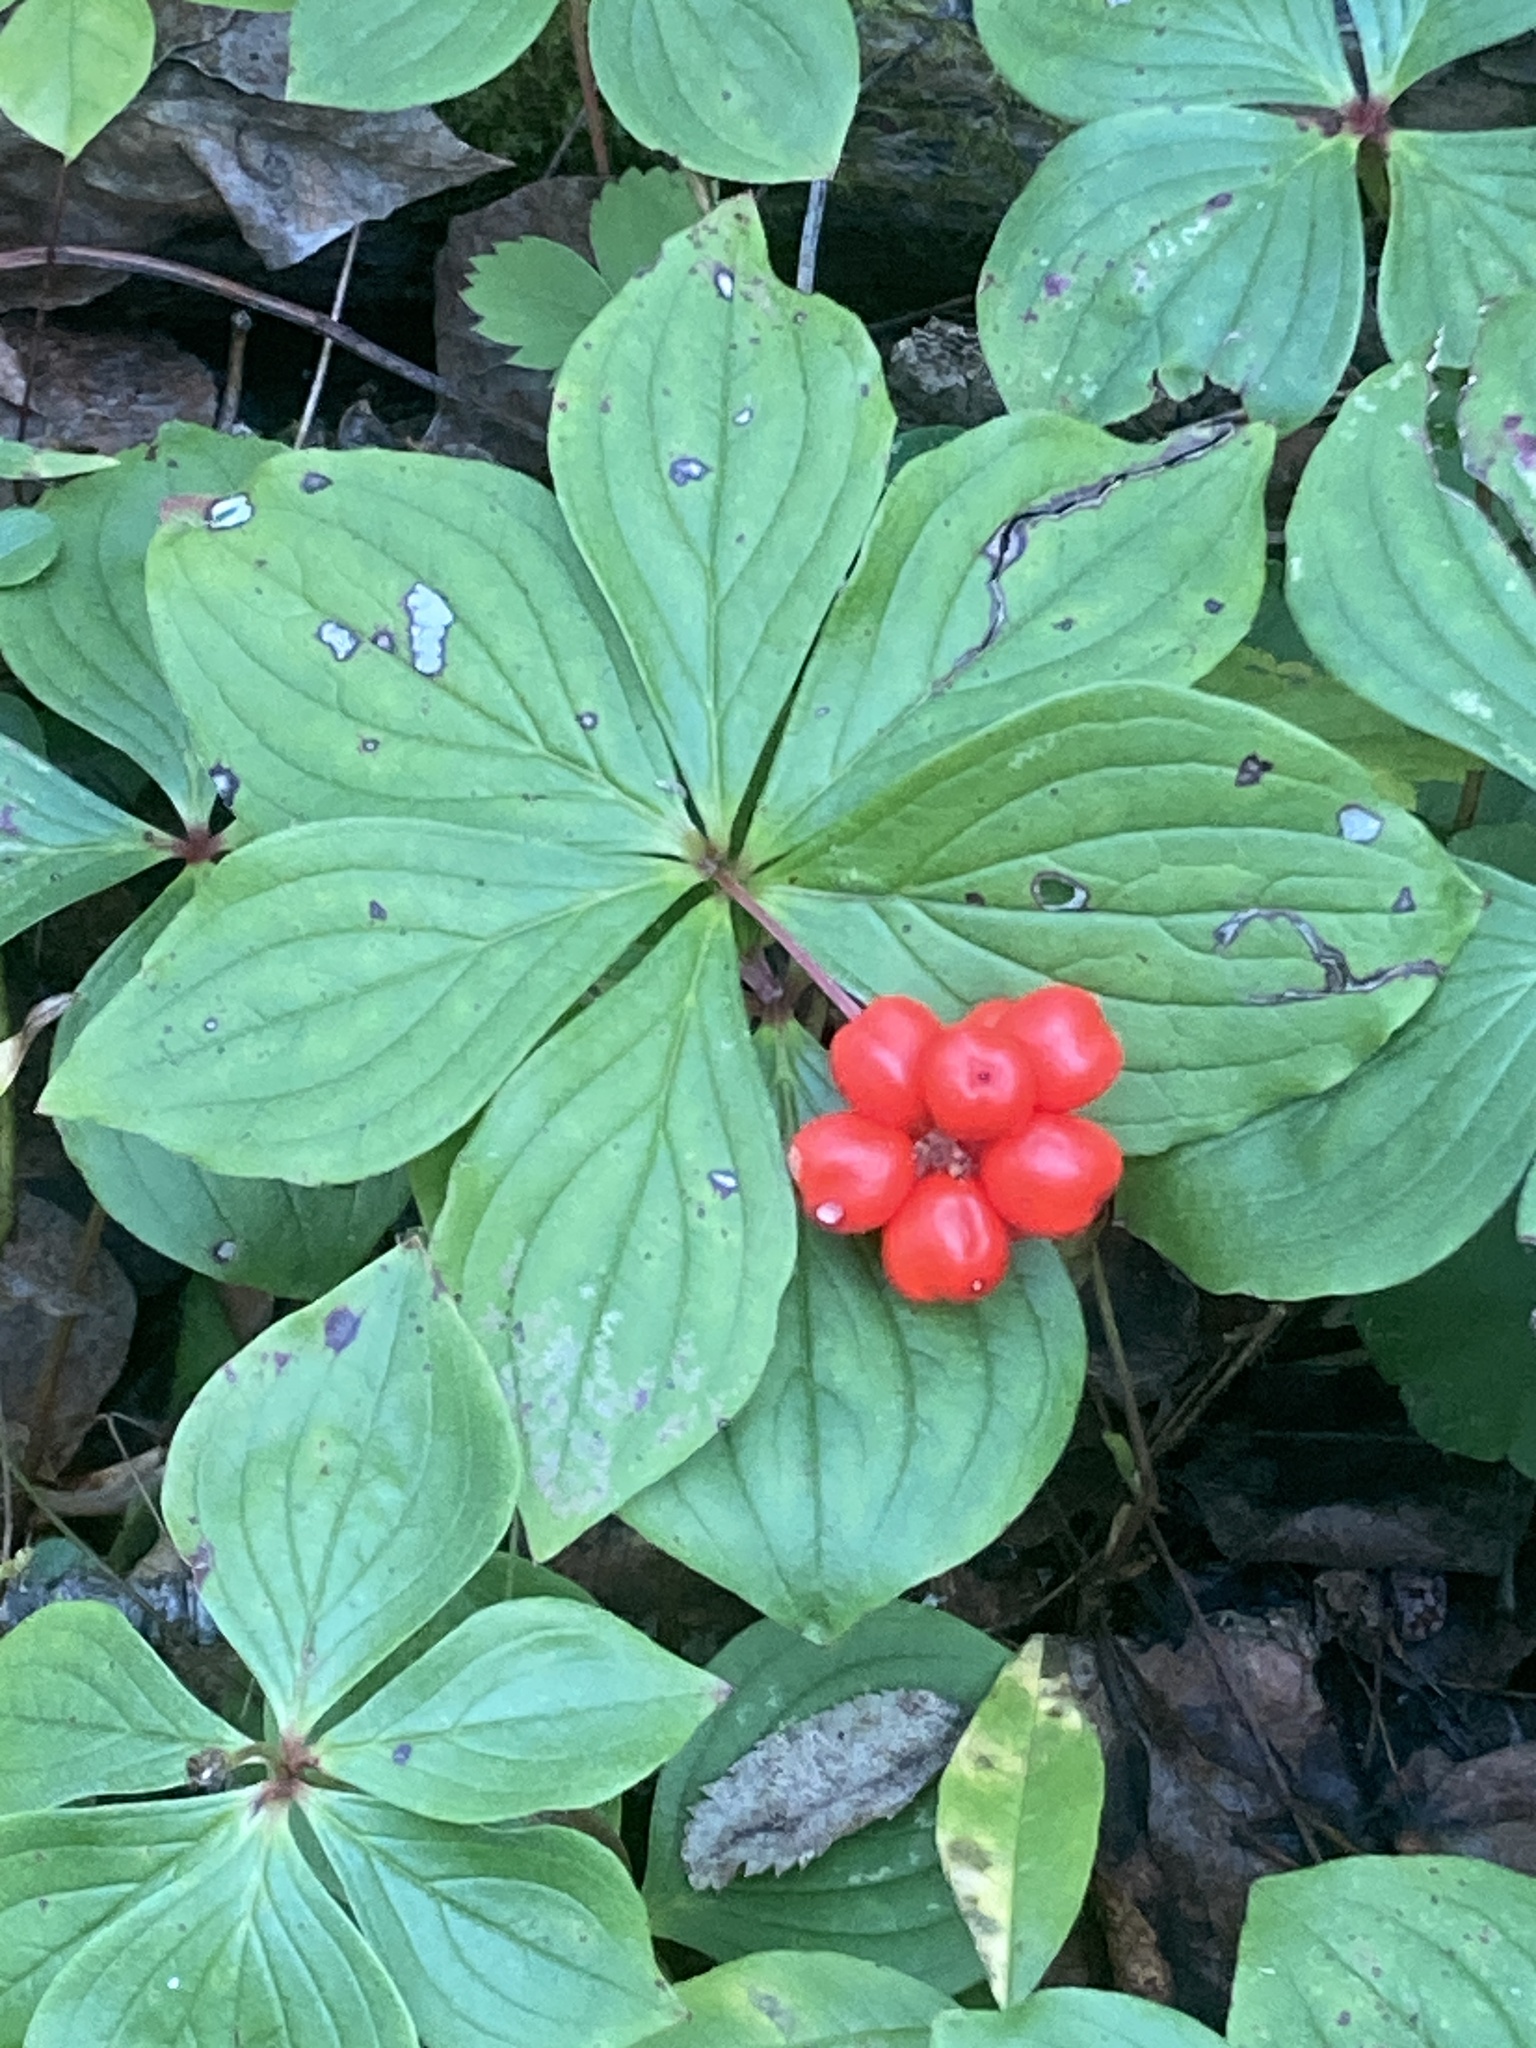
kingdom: Plantae
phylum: Tracheophyta
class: Magnoliopsida
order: Cornales
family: Cornaceae
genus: Cornus
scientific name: Cornus canadensis
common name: Creeping dogwood
